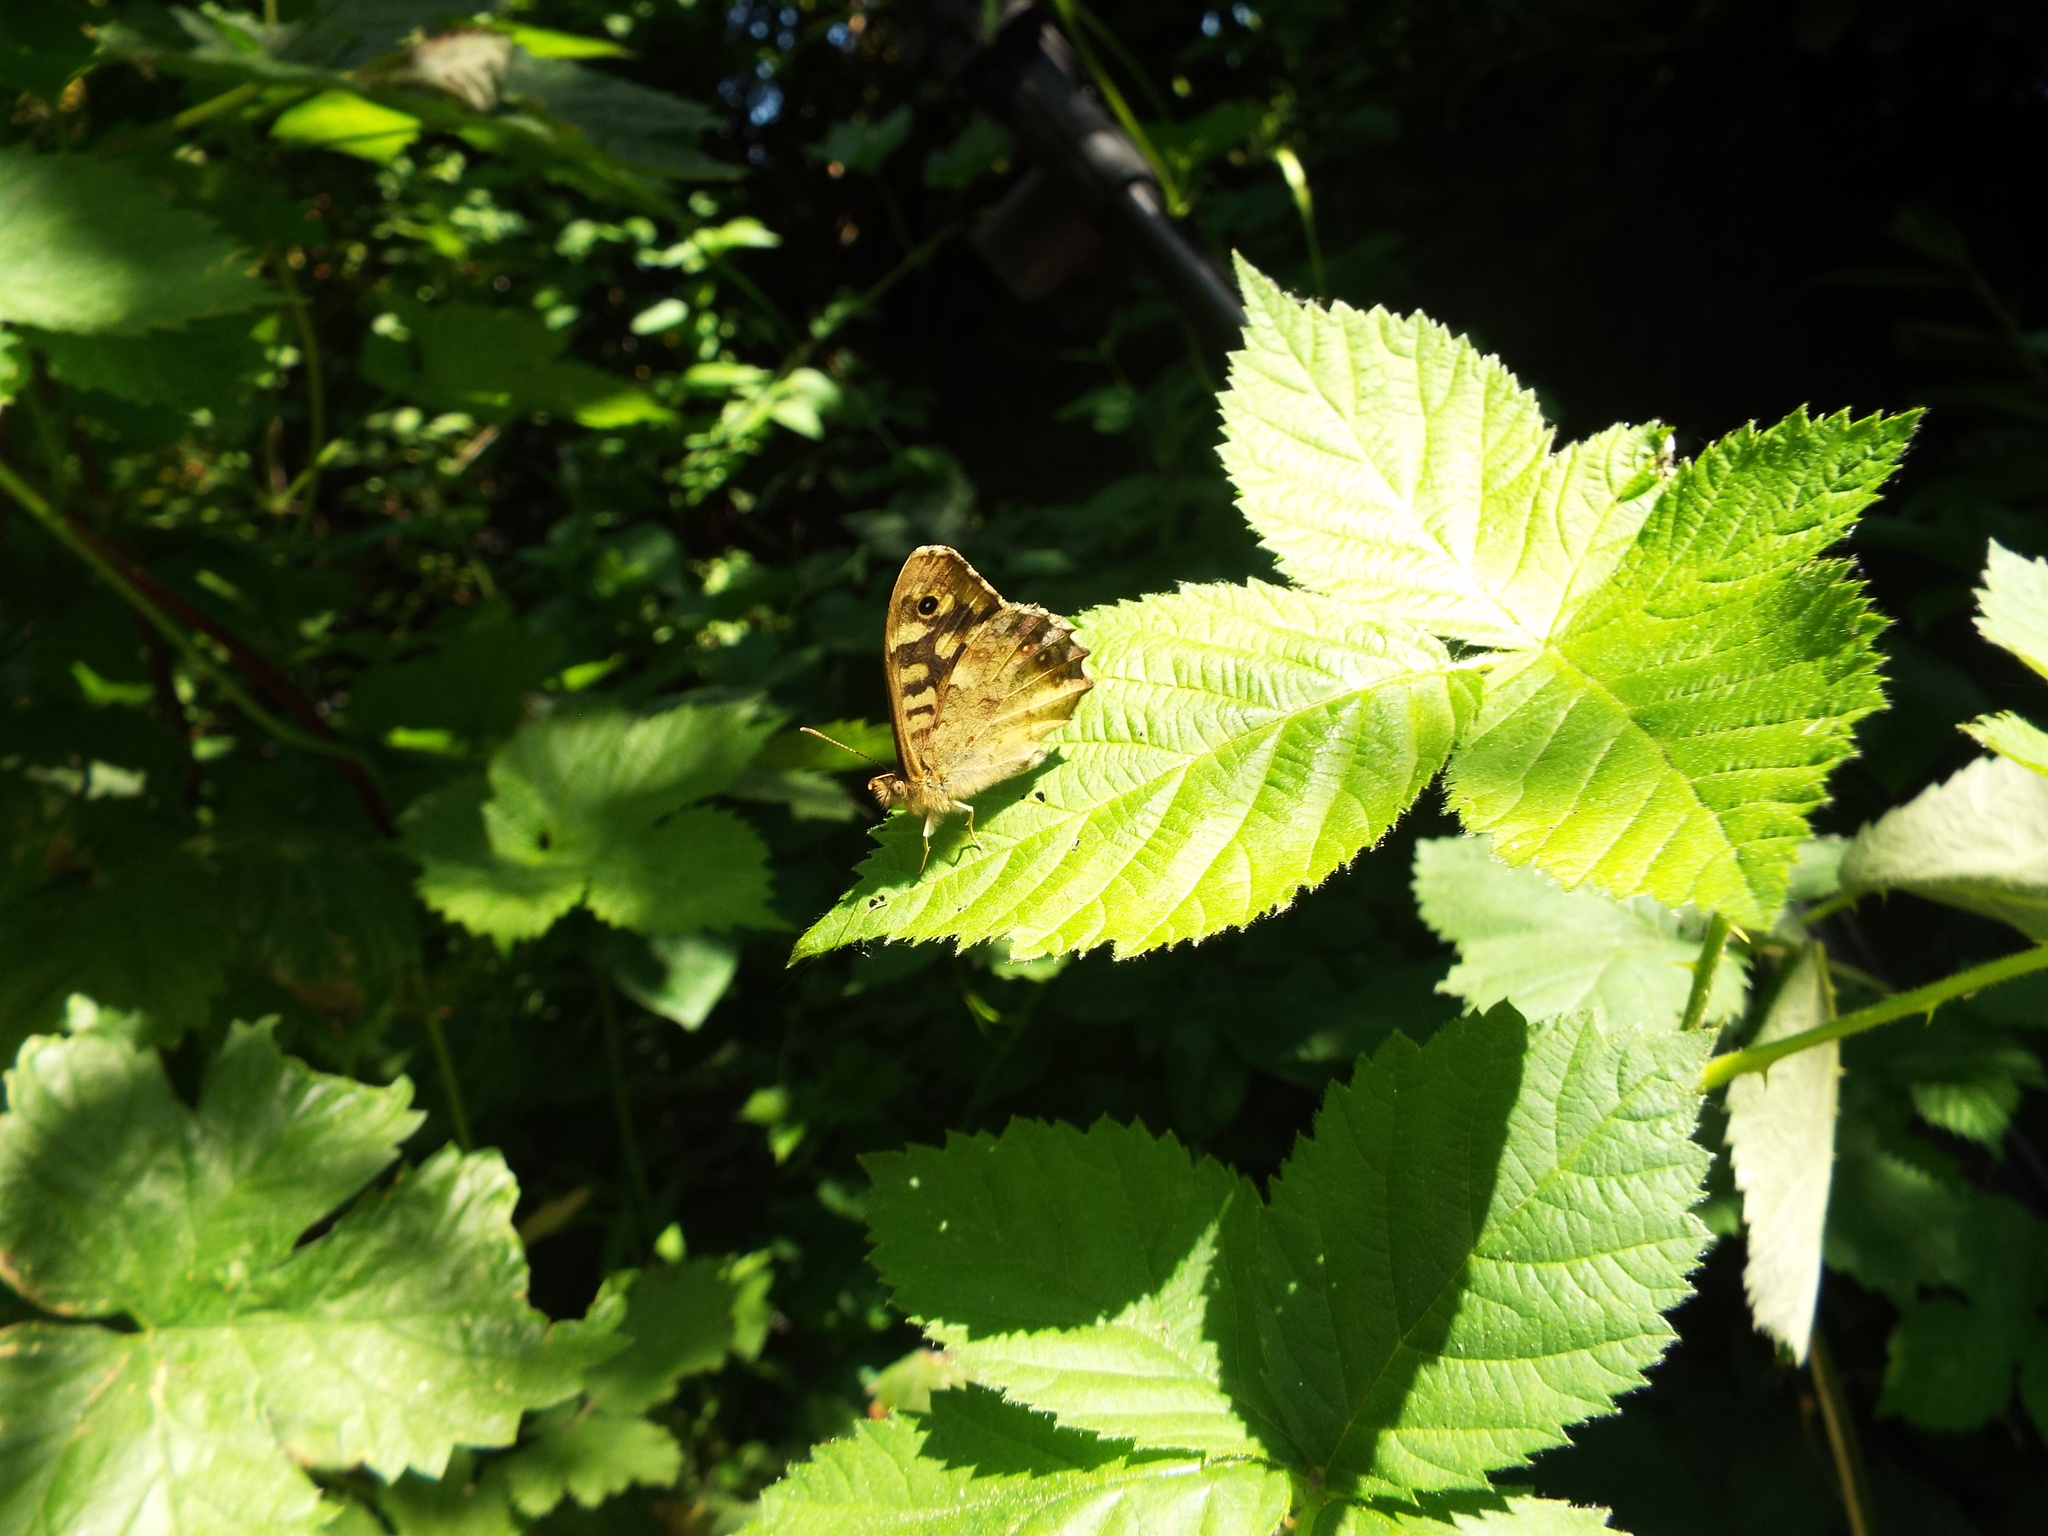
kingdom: Animalia
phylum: Arthropoda
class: Insecta
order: Lepidoptera
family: Nymphalidae
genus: Pararge
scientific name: Pararge aegeria
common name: Speckled wood
